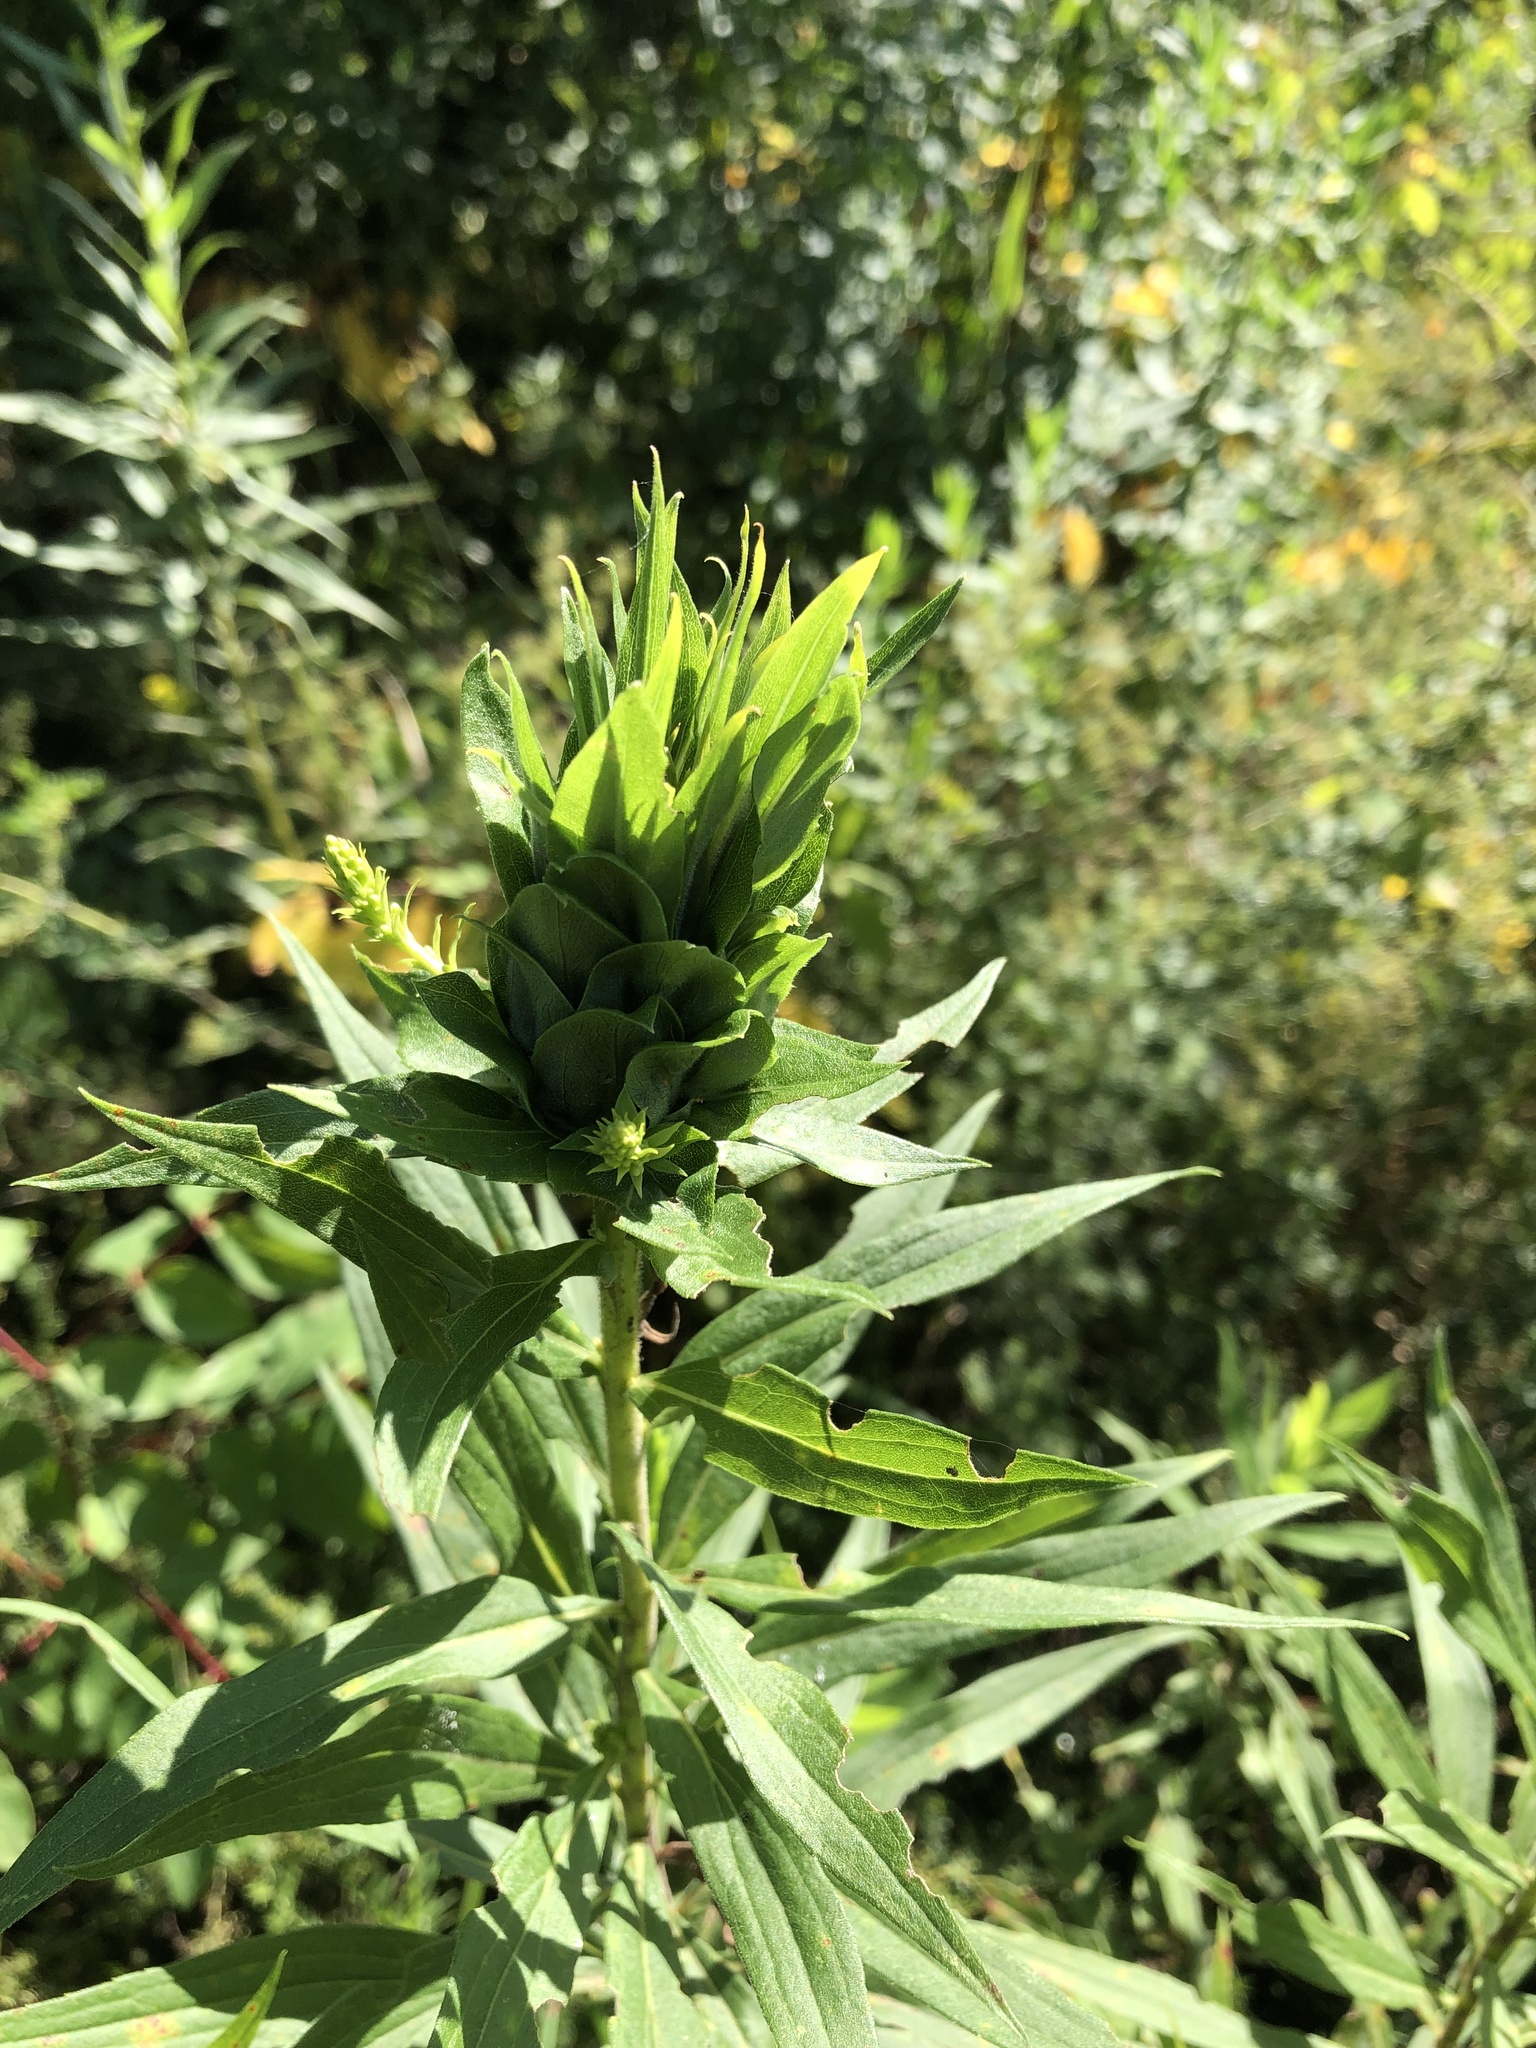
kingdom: Animalia
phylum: Arthropoda
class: Insecta
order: Diptera
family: Cecidomyiidae
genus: Rhopalomyia
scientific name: Rhopalomyia solidaginis
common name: Goldenrod bunch gall midge
